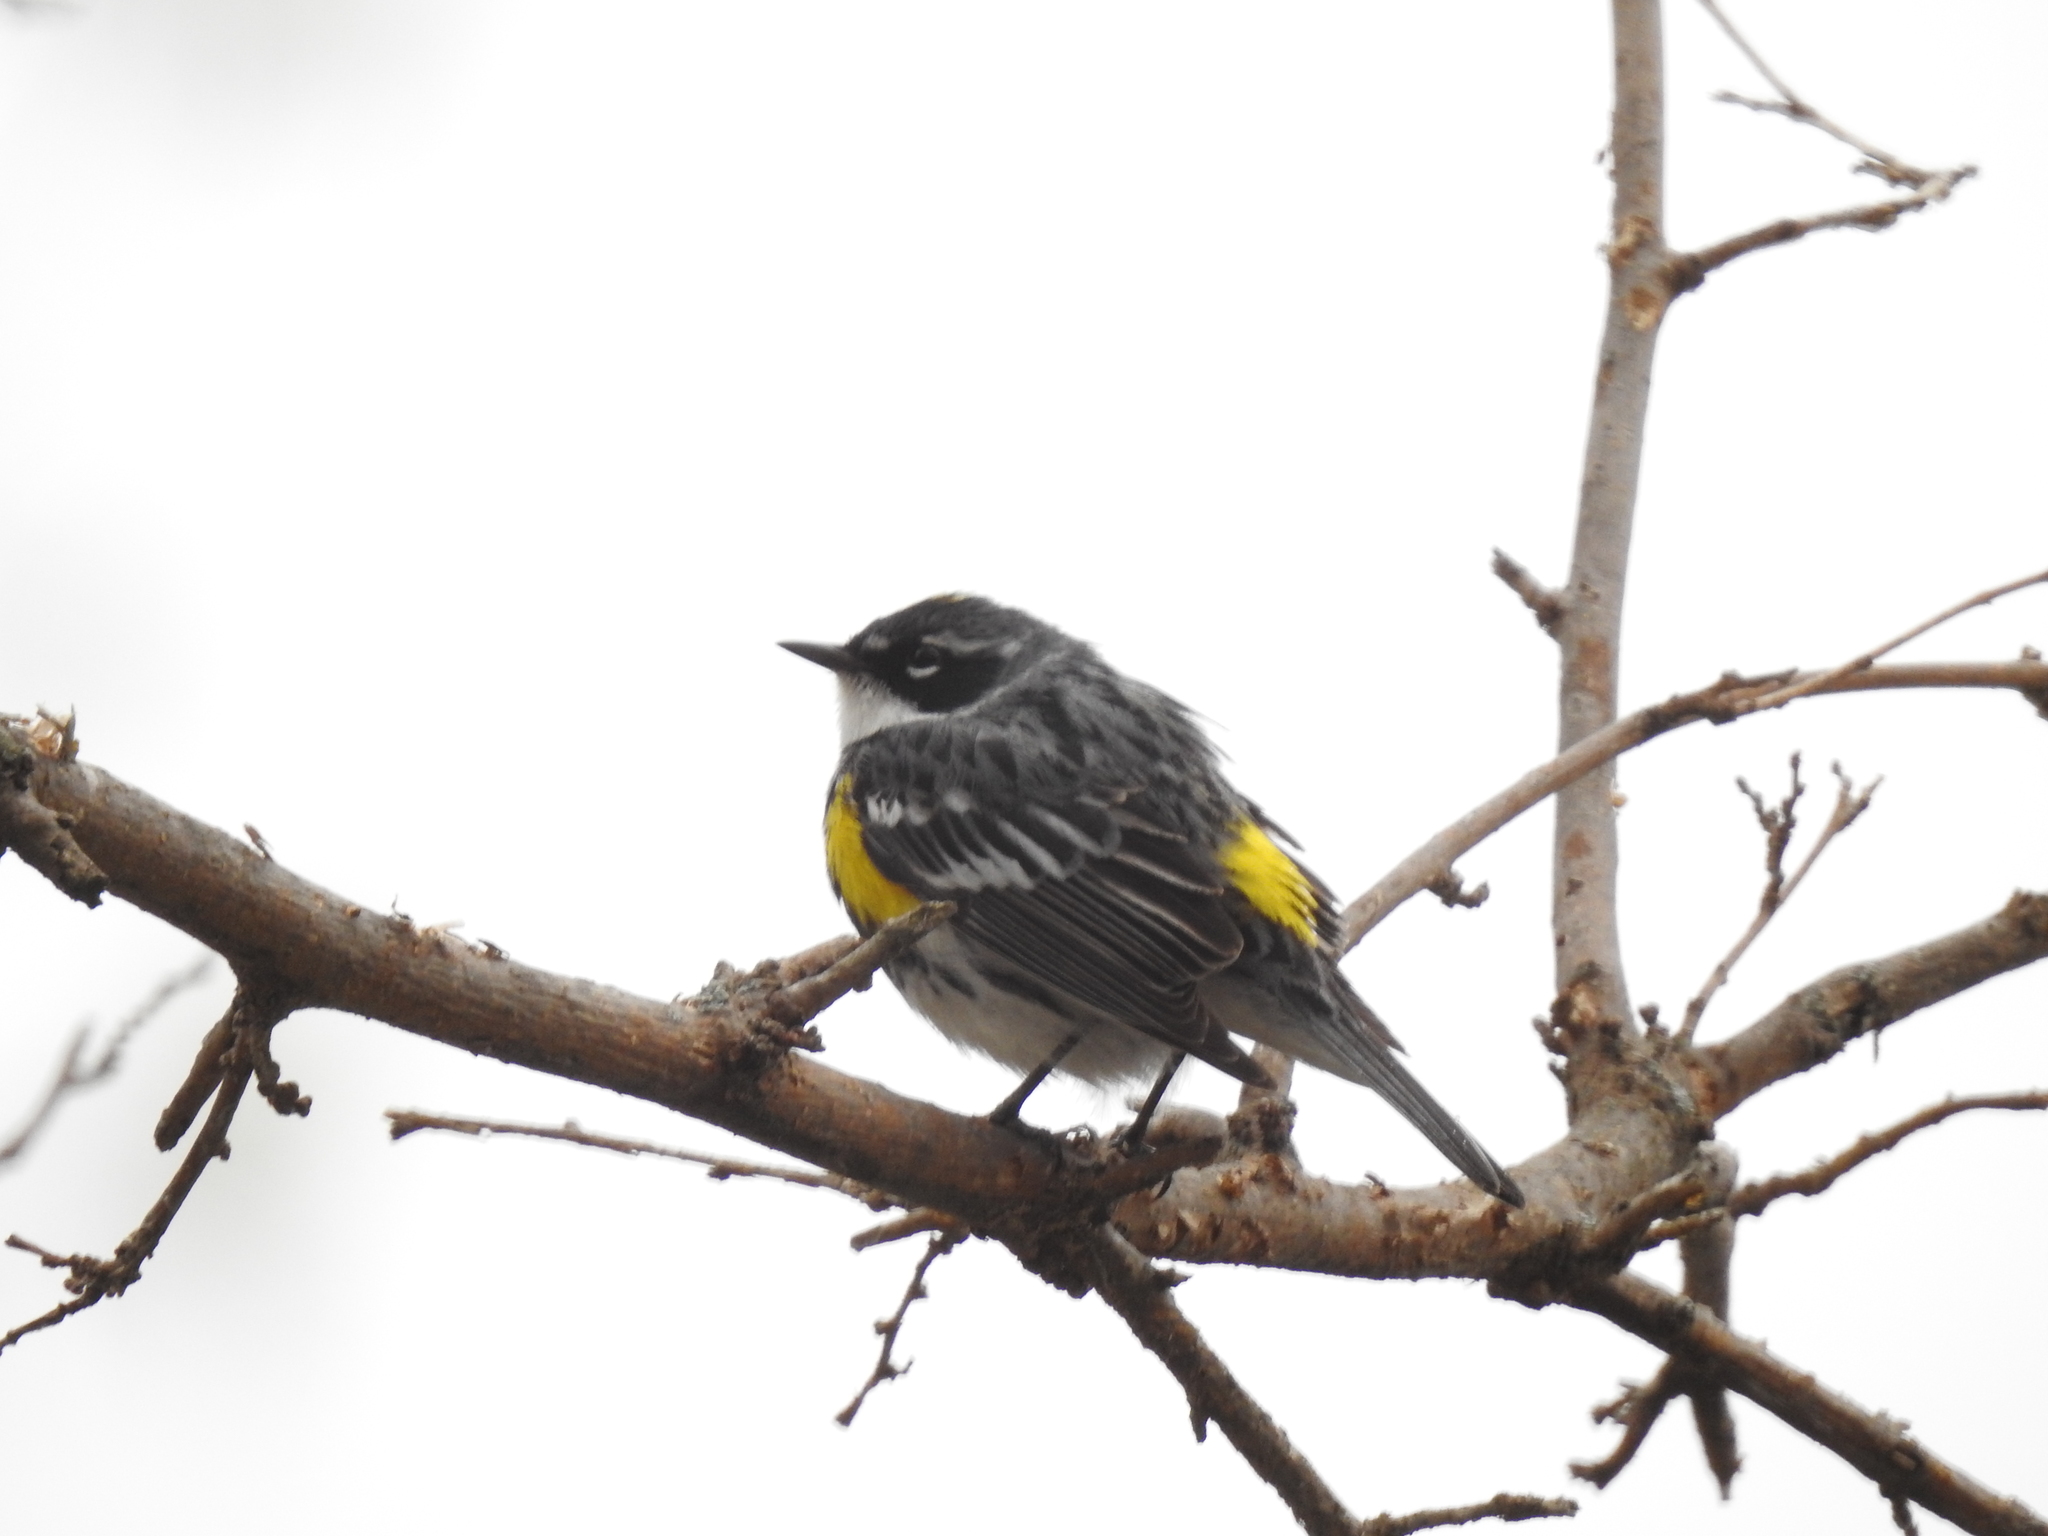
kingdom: Animalia
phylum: Chordata
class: Aves
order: Passeriformes
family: Parulidae
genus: Setophaga
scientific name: Setophaga coronata
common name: Myrtle warbler
